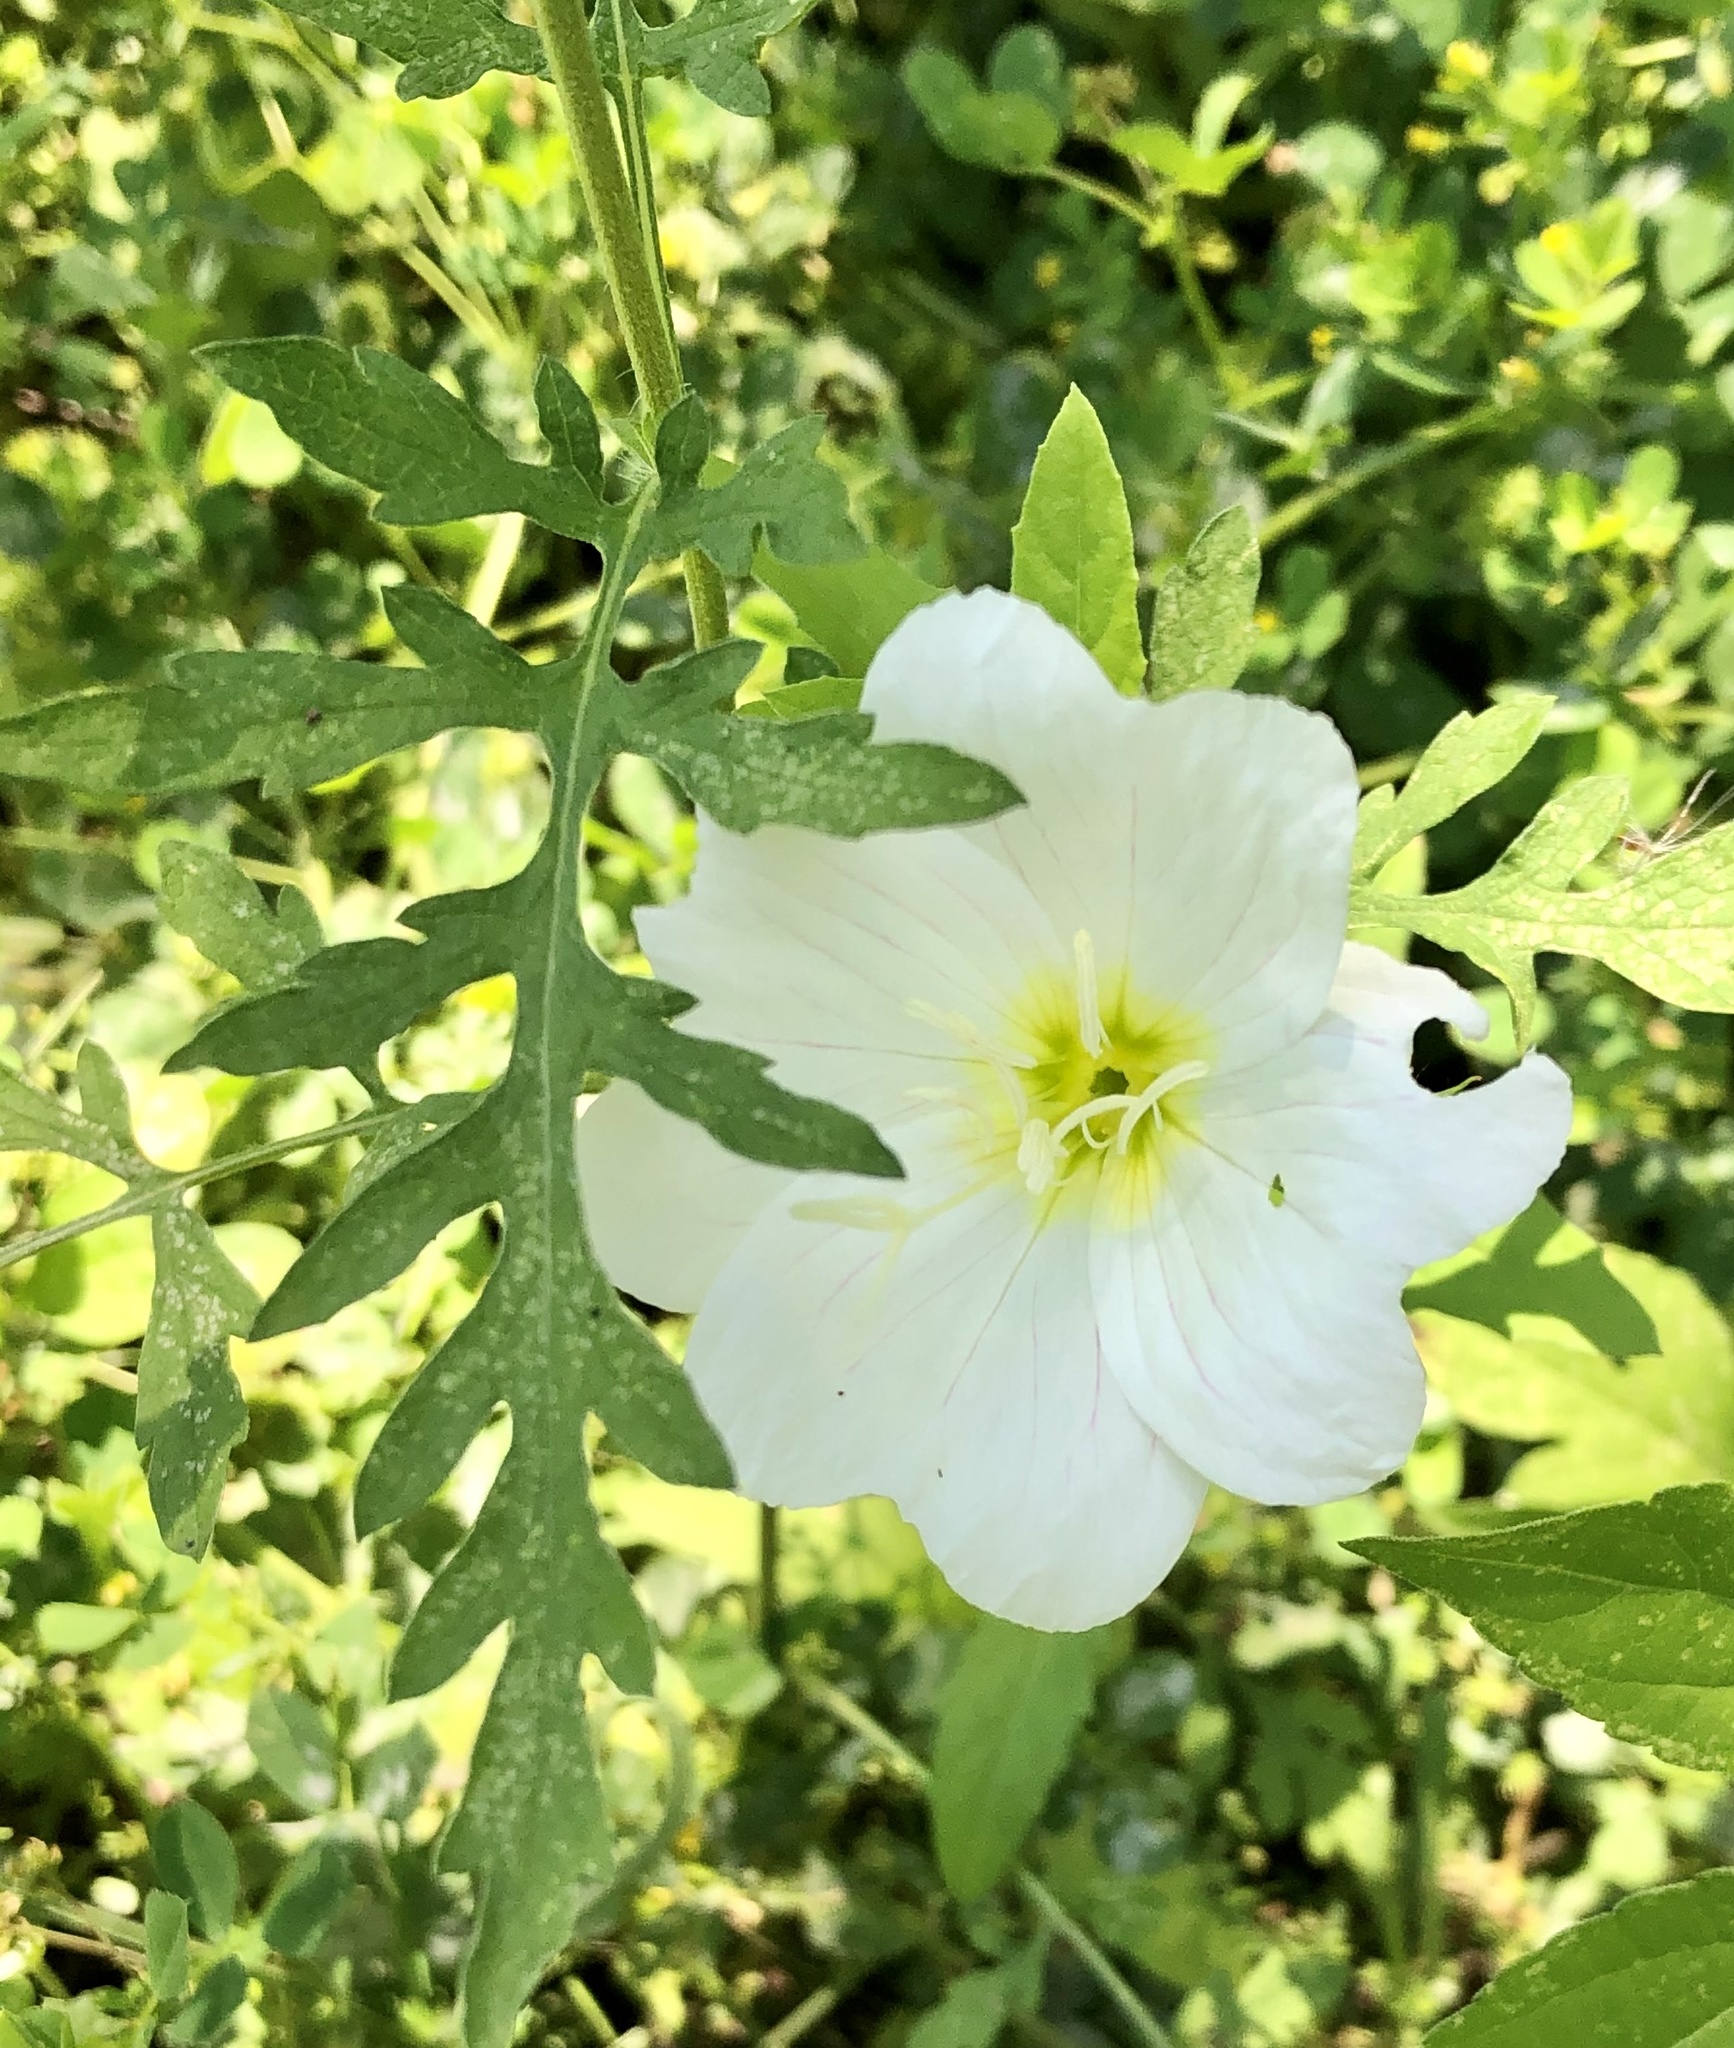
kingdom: Plantae
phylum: Tracheophyta
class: Magnoliopsida
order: Myrtales
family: Onagraceae
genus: Oenothera
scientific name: Oenothera speciosa
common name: White evening-primrose
